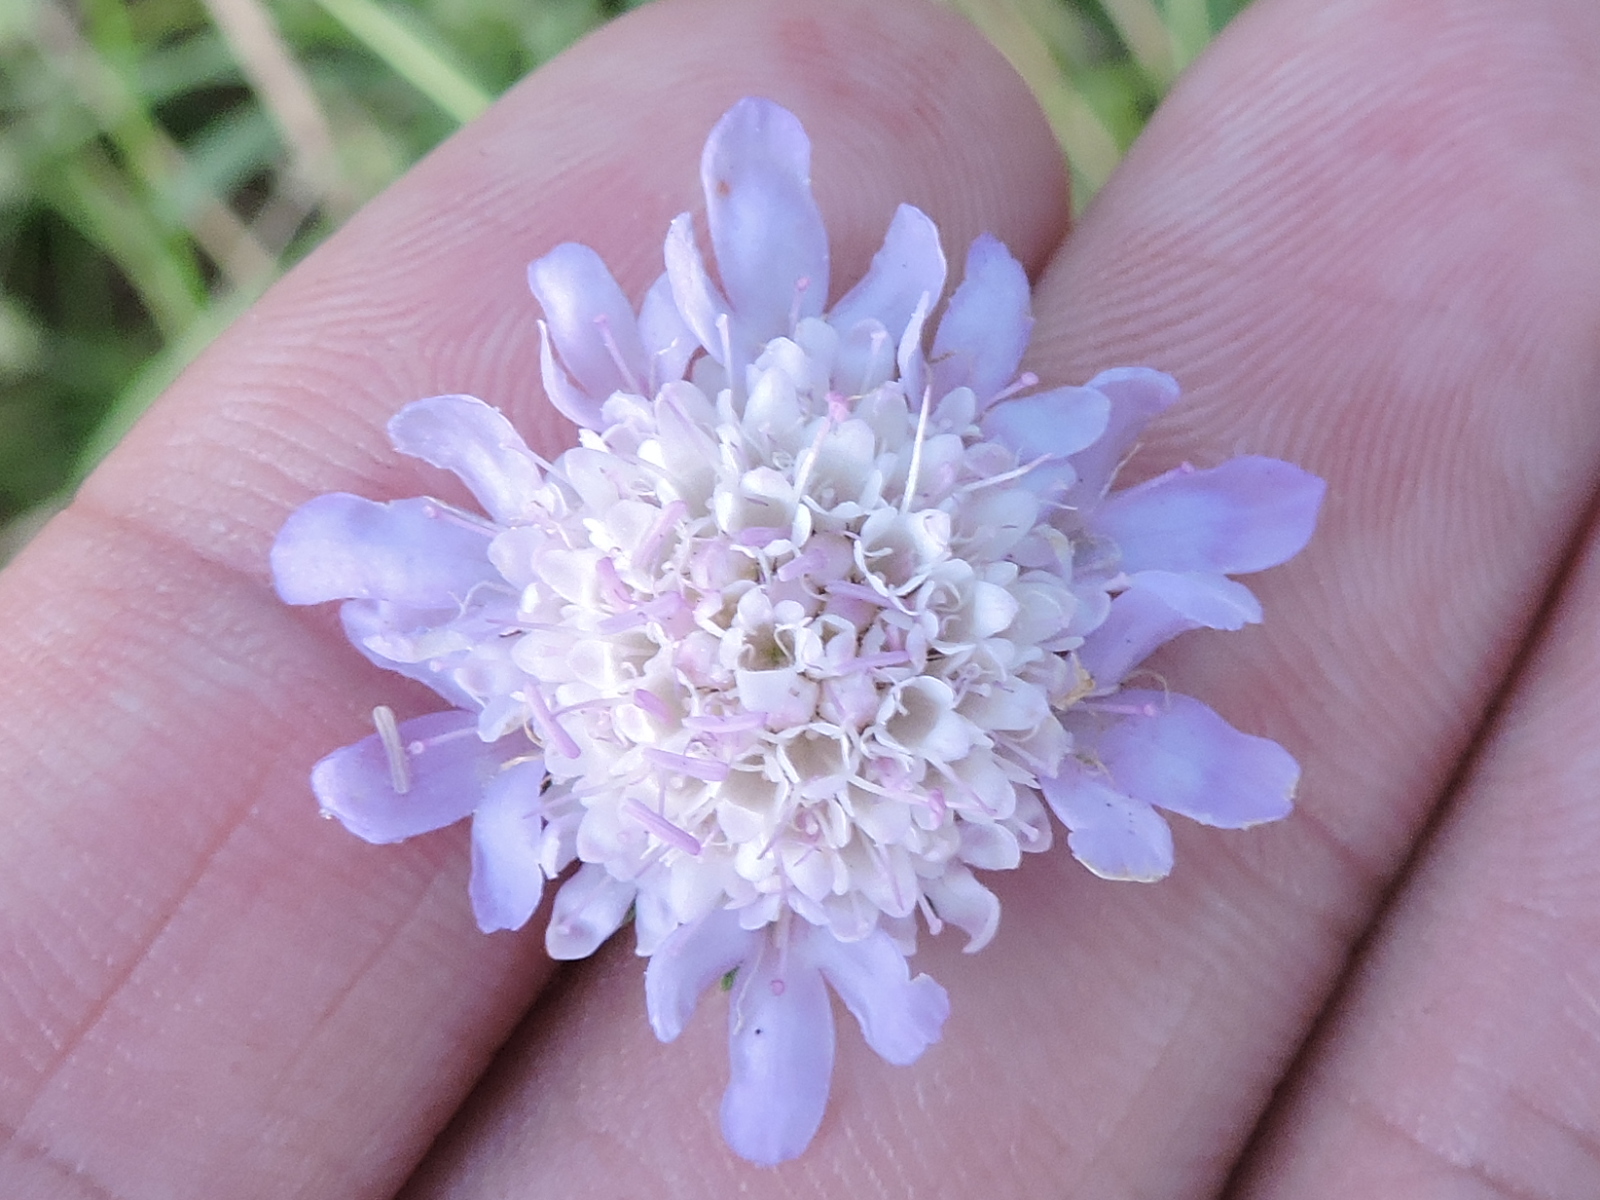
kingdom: Plantae
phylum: Tracheophyta
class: Magnoliopsida
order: Dipsacales
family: Caprifoliaceae
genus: Sixalix
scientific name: Sixalix atropurpurea
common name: Sweet scabious
